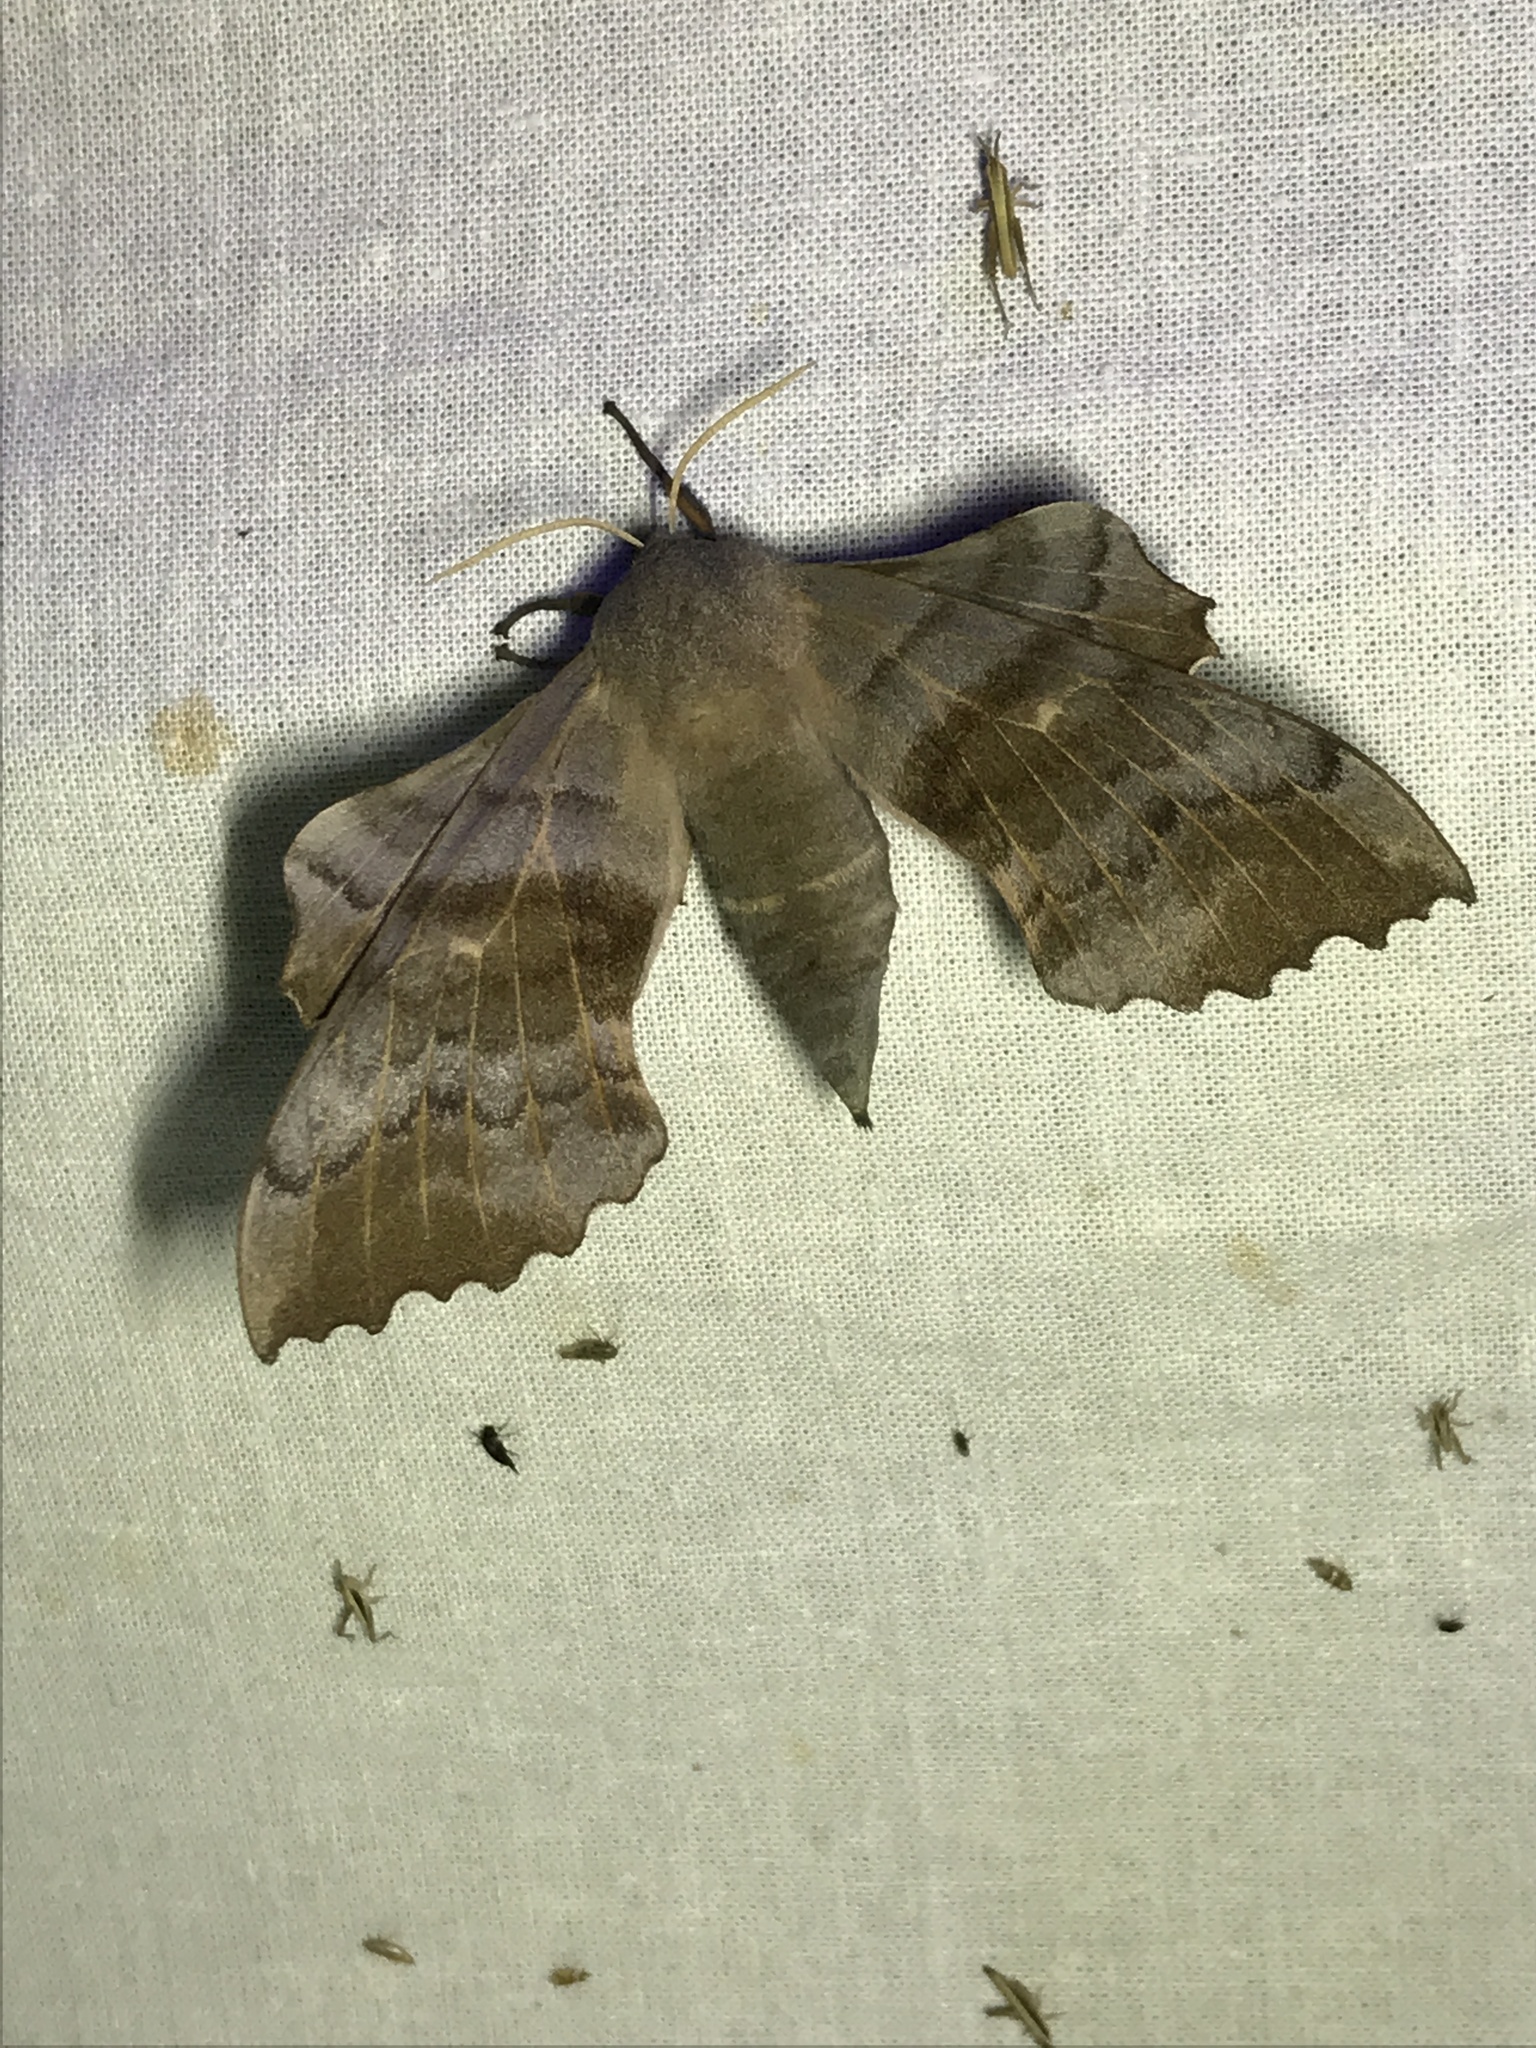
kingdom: Animalia
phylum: Arthropoda
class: Insecta
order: Lepidoptera
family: Sphingidae
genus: Laothoe
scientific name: Laothoe populi
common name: Poplar hawk-moth
